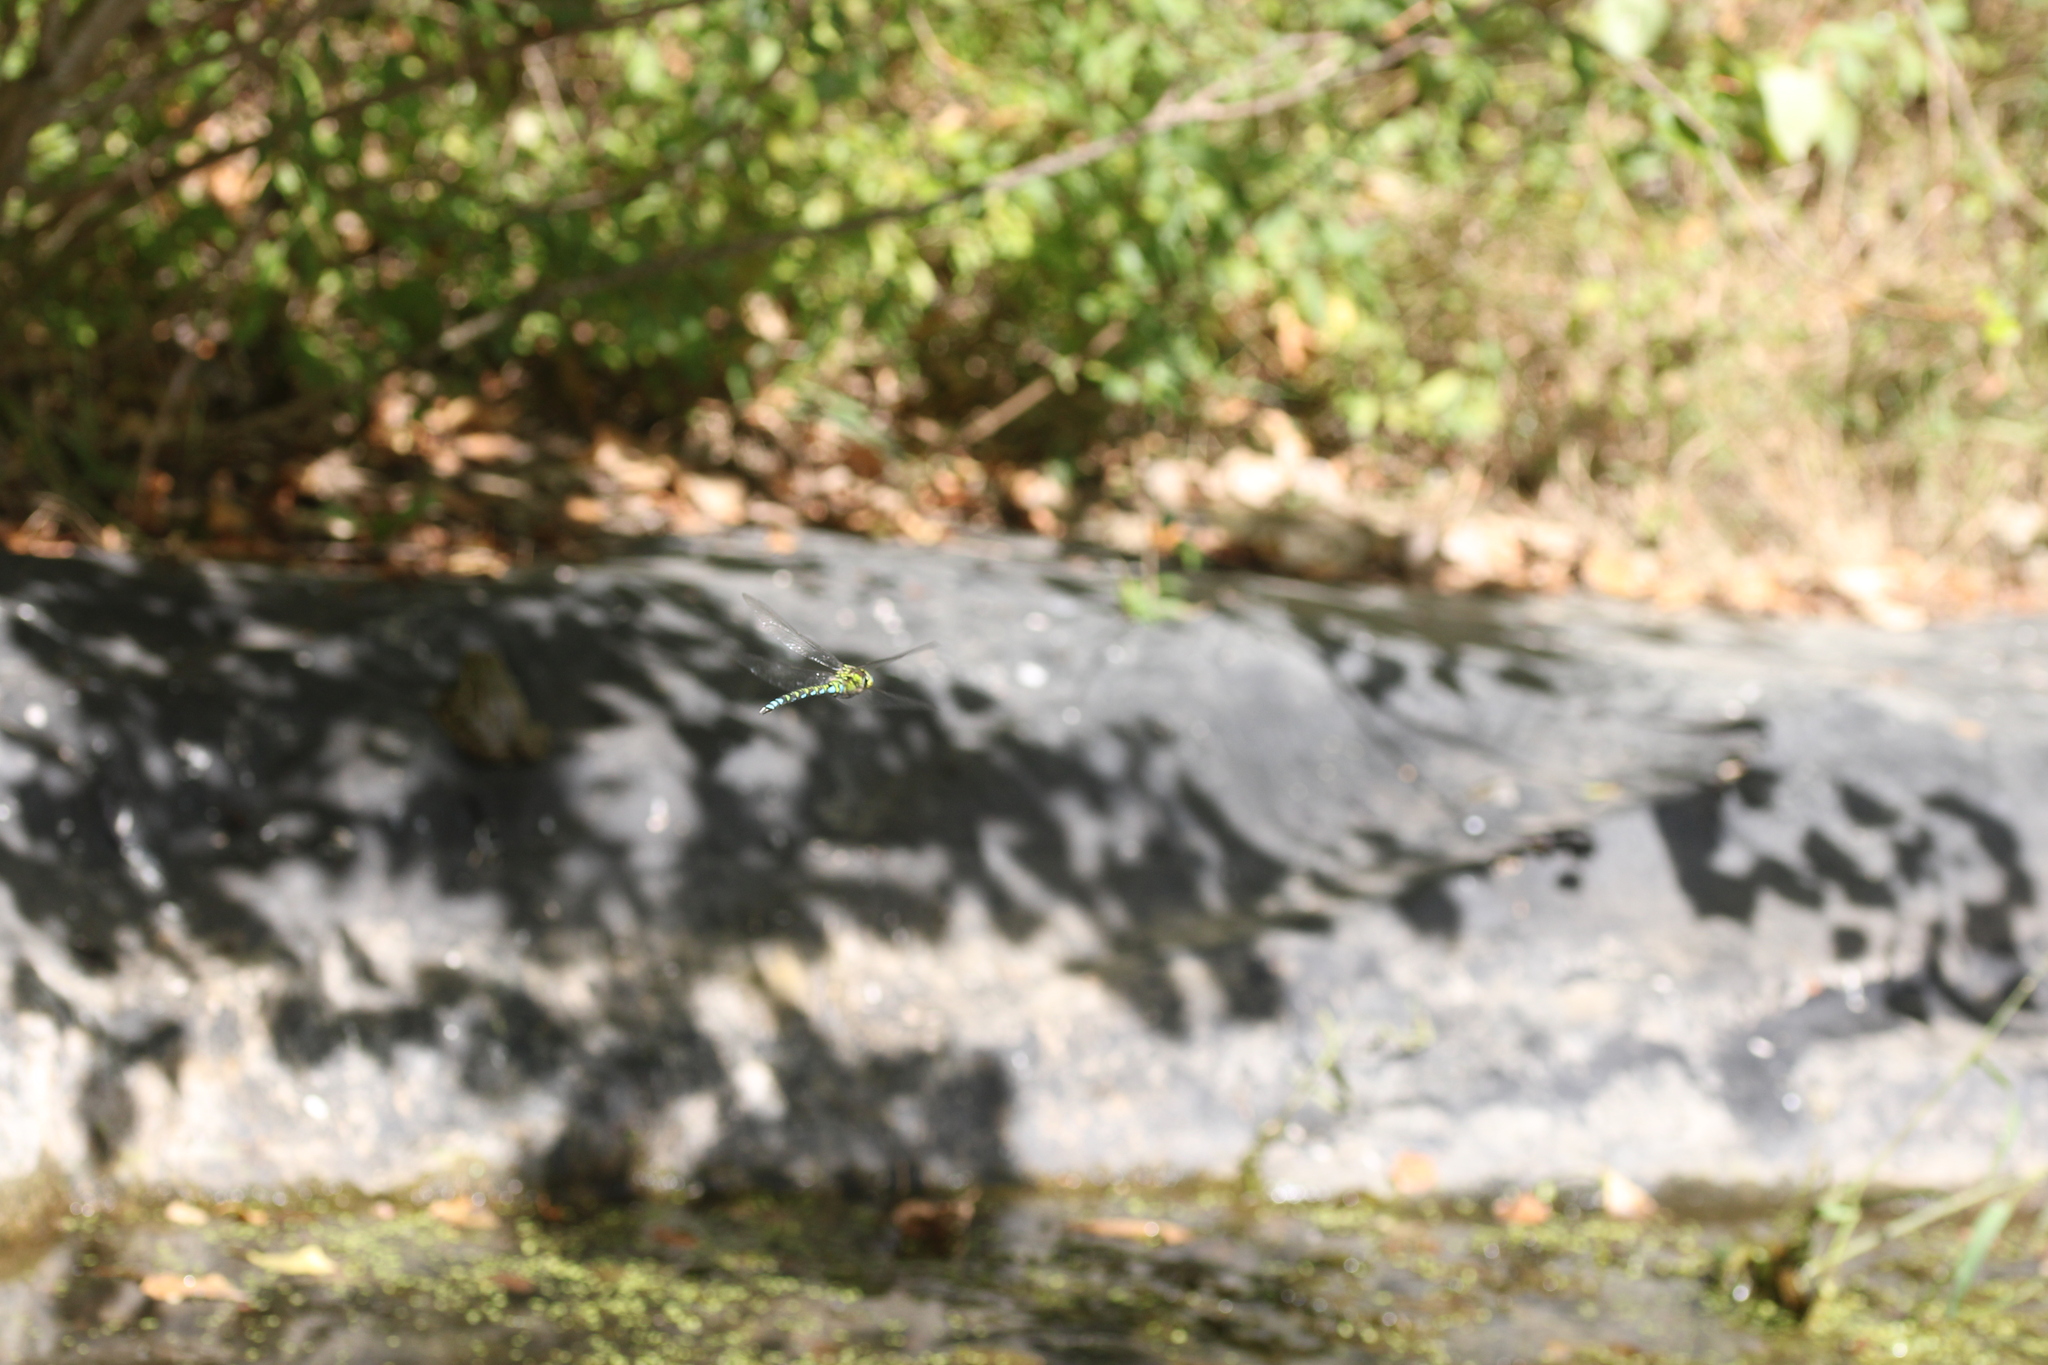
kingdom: Animalia
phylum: Arthropoda
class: Insecta
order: Odonata
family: Aeshnidae
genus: Aeshna
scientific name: Aeshna cyanea
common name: Southern hawker
